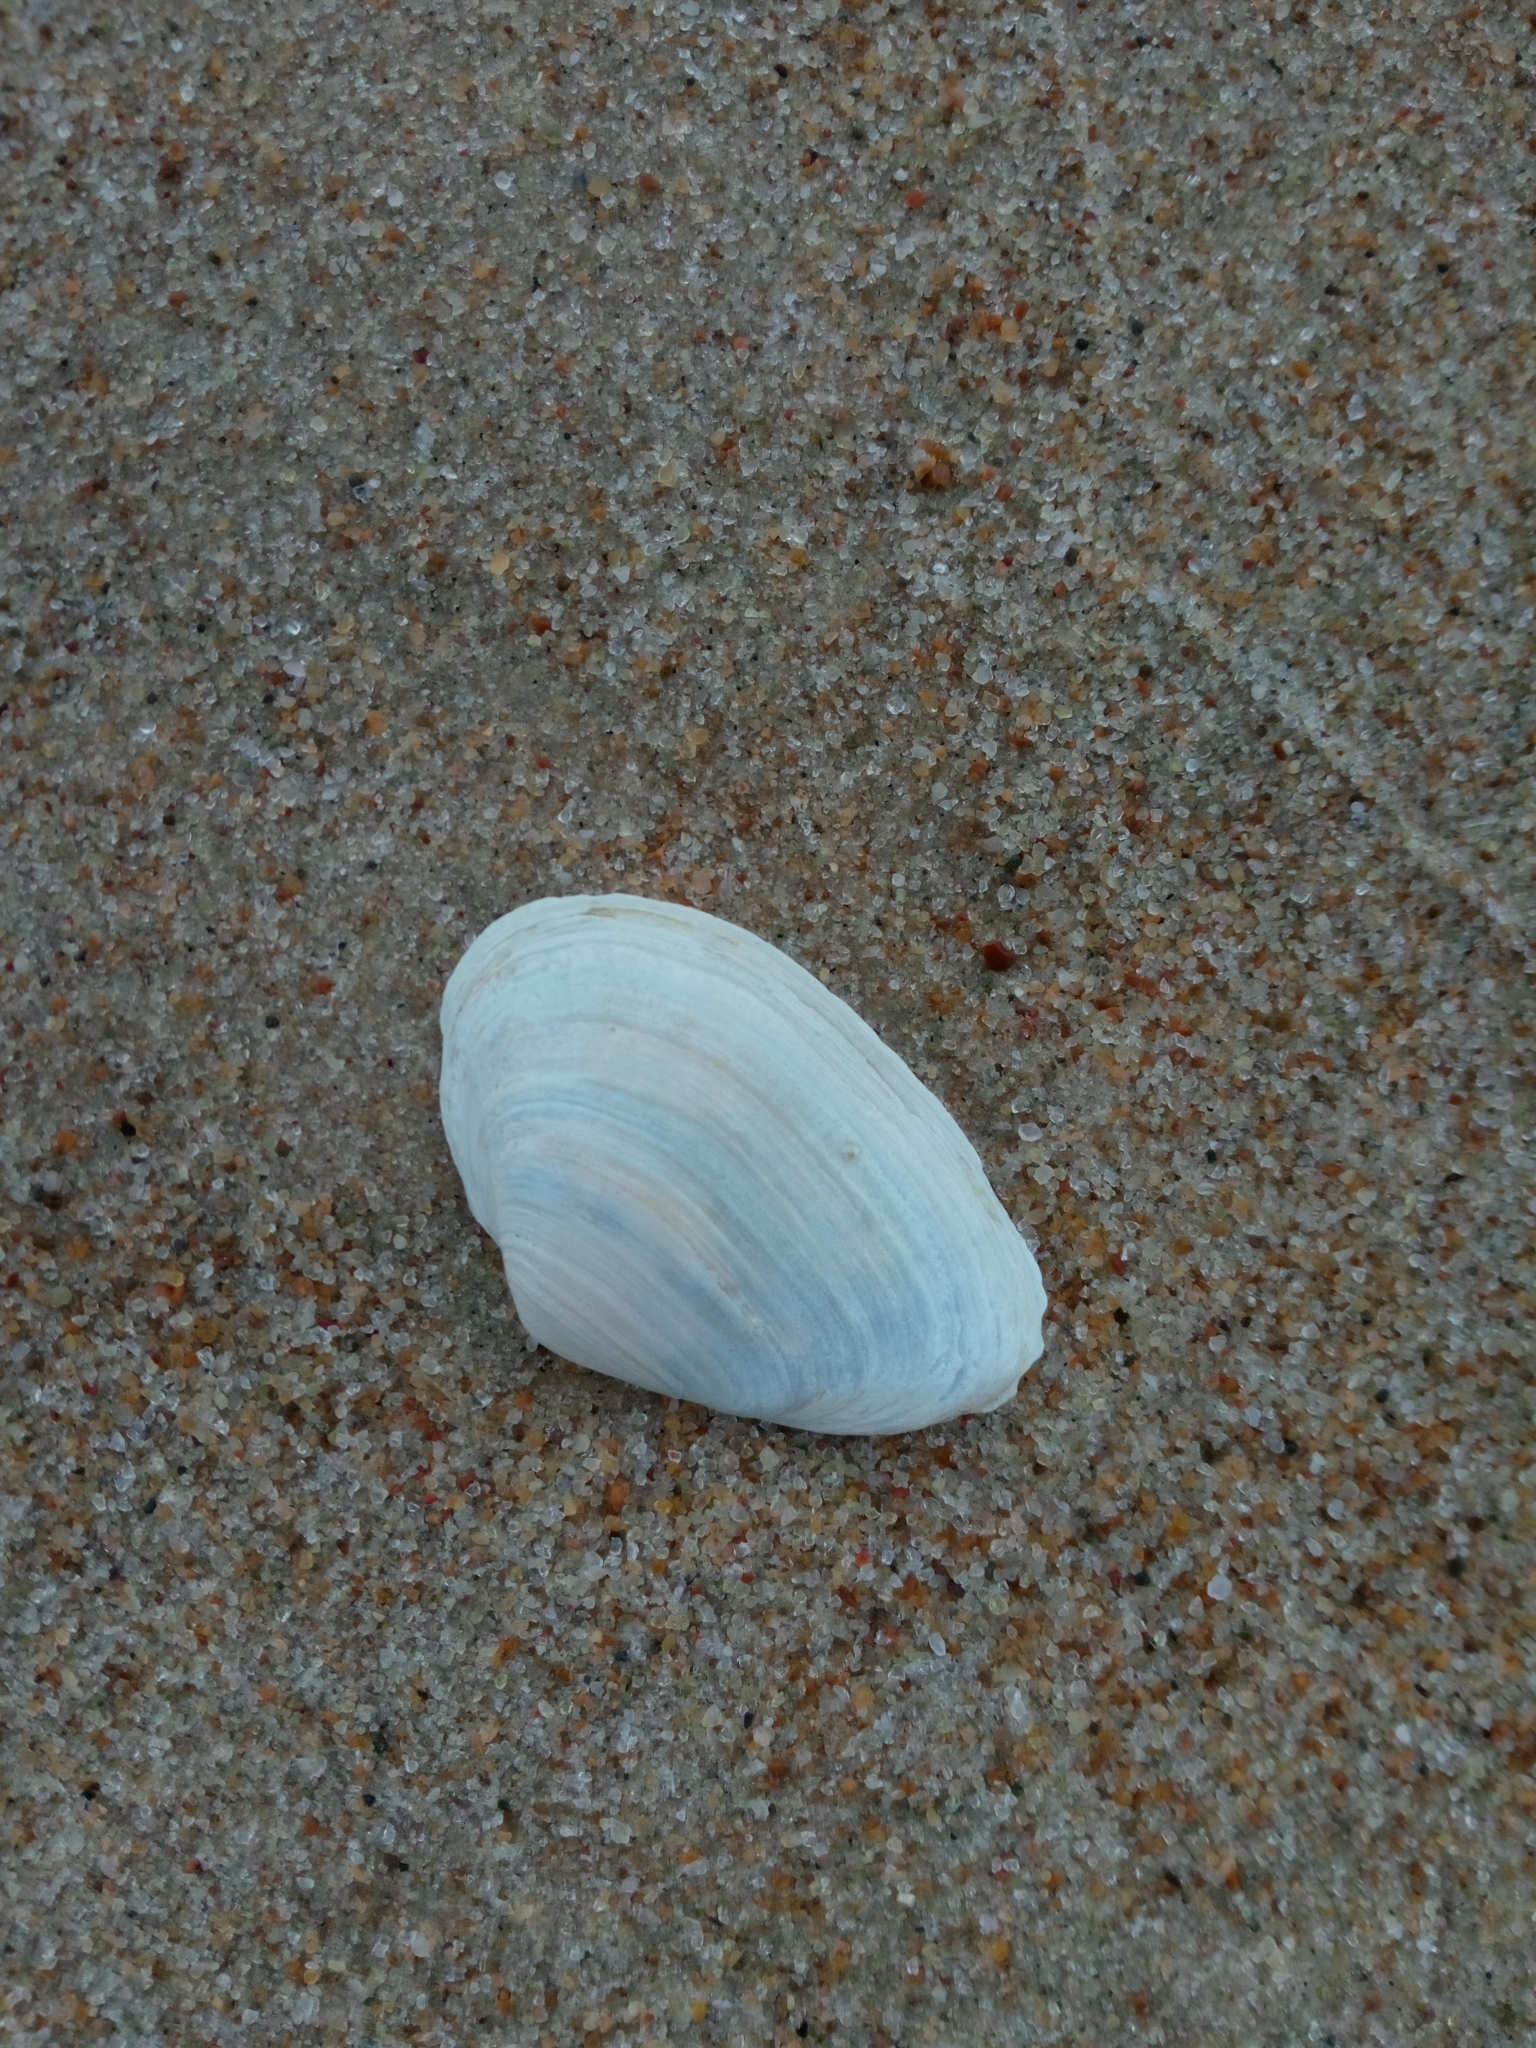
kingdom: Animalia
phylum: Mollusca
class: Bivalvia
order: Myida
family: Myidae
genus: Mya
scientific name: Mya arenaria
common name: Soft-shelled clam
